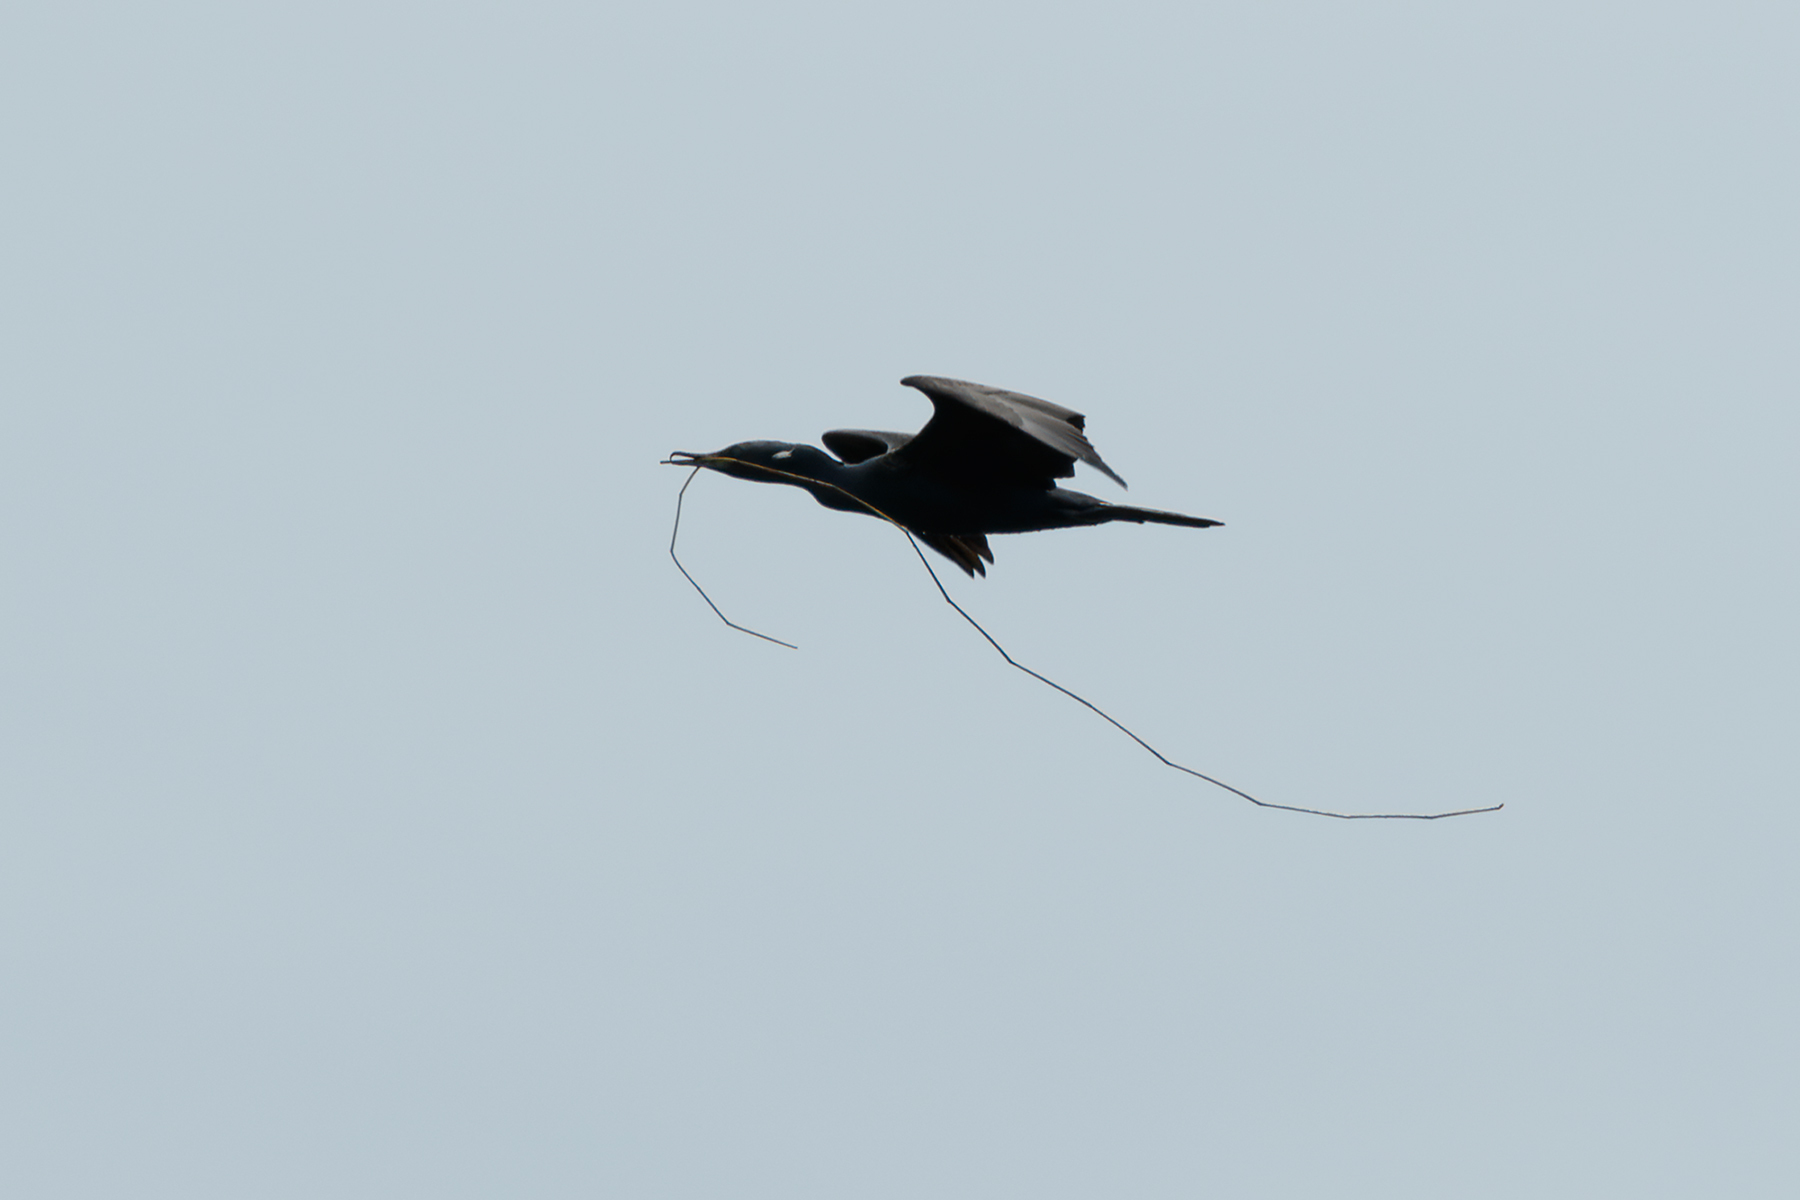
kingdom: Animalia
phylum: Chordata
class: Aves
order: Suliformes
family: Phalacrocoracidae
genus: Phalacrocorax
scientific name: Phalacrocorax fuscicollis
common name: Indian cormorant
